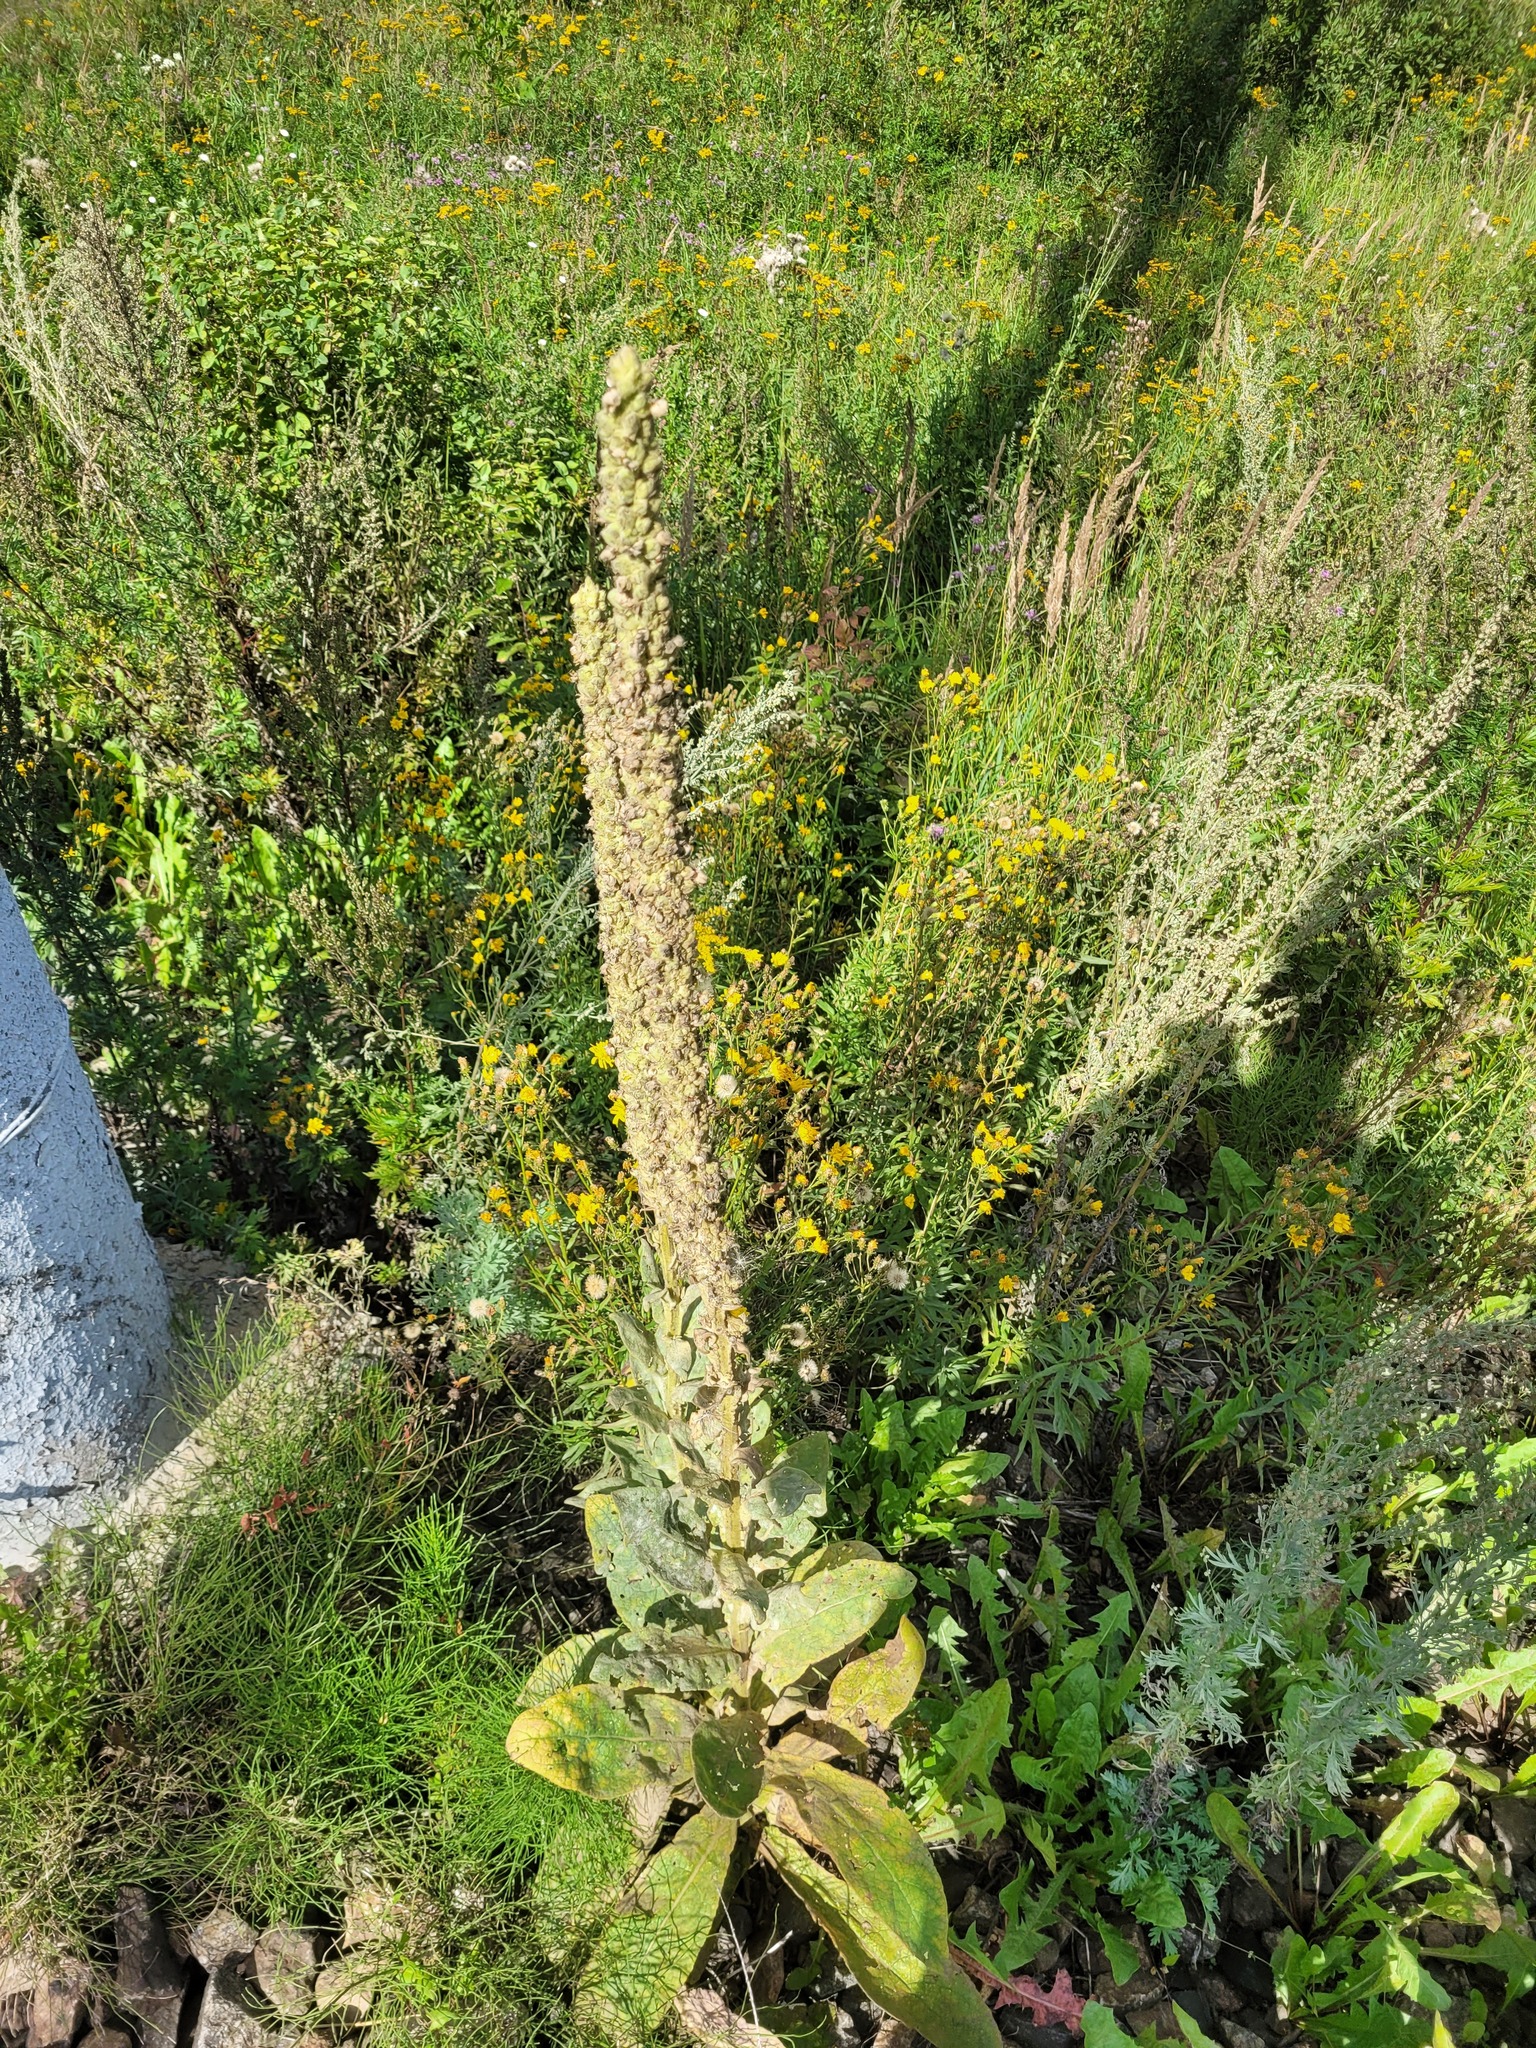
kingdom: Plantae
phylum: Tracheophyta
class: Magnoliopsida
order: Lamiales
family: Scrophulariaceae
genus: Verbascum
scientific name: Verbascum thapsus
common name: Common mullein
